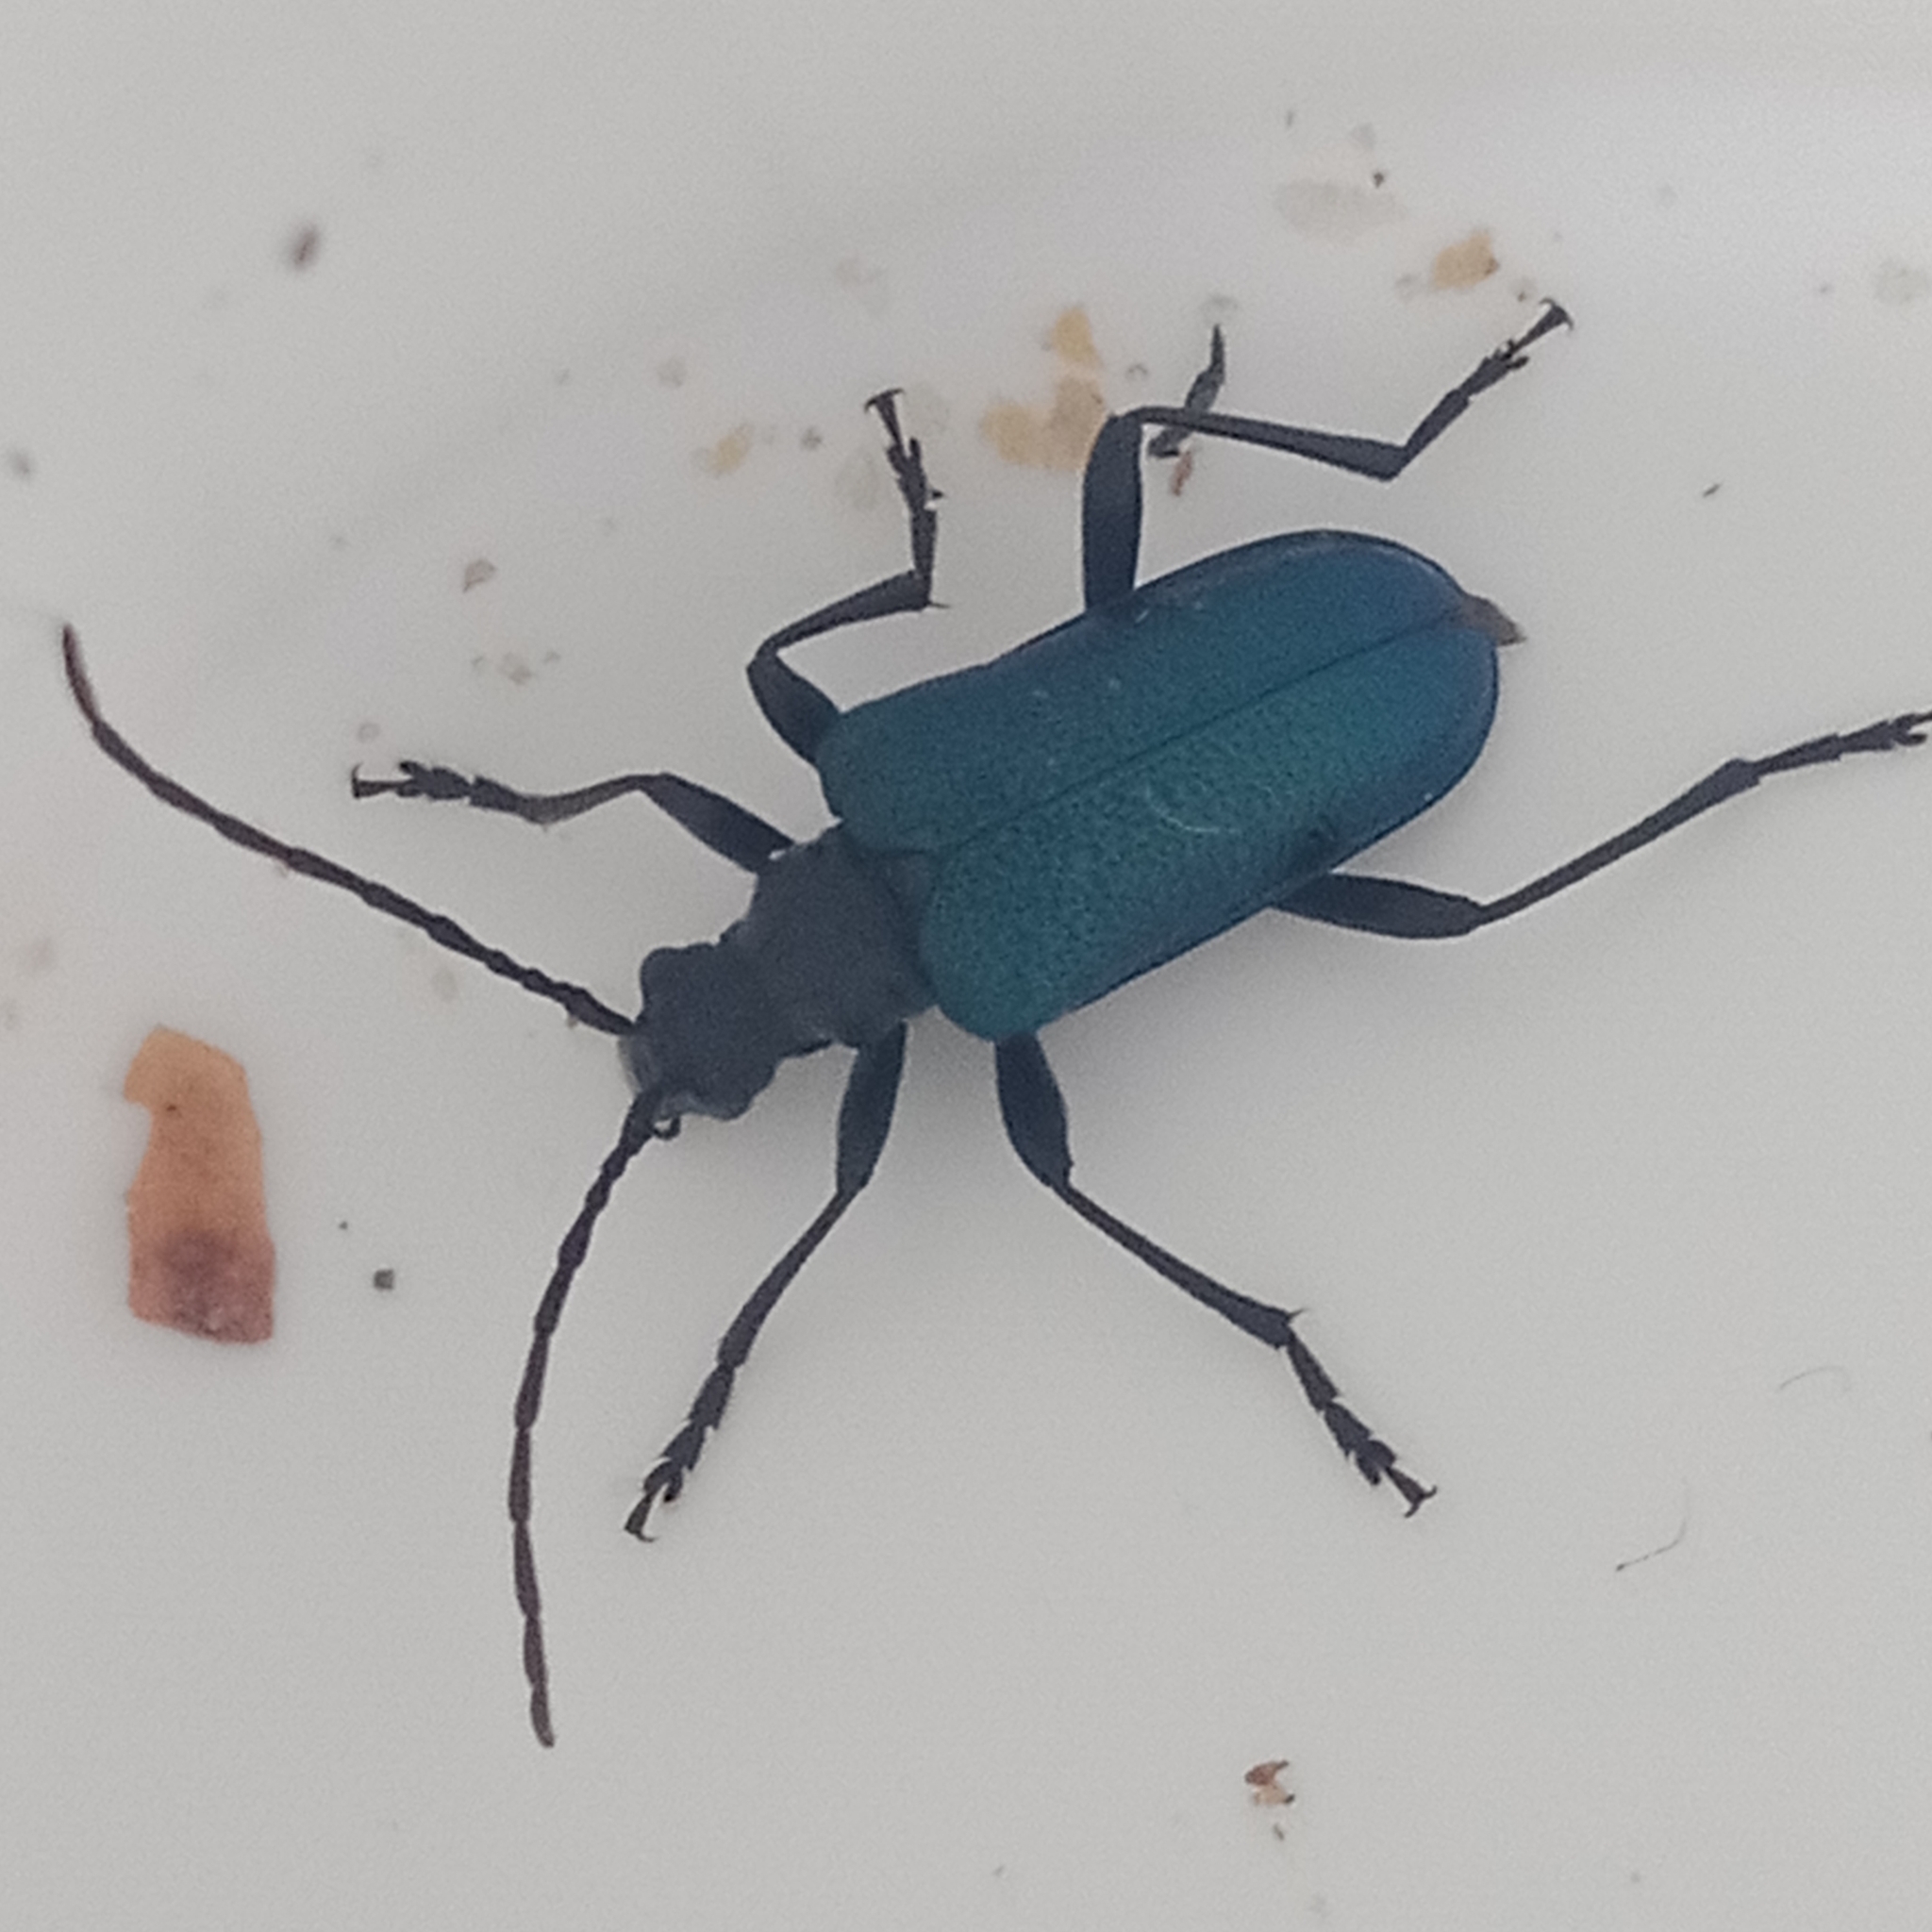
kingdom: Animalia
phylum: Arthropoda
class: Insecta
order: Coleoptera
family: Cerambycidae
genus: Gaurotes
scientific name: Gaurotes virginea
